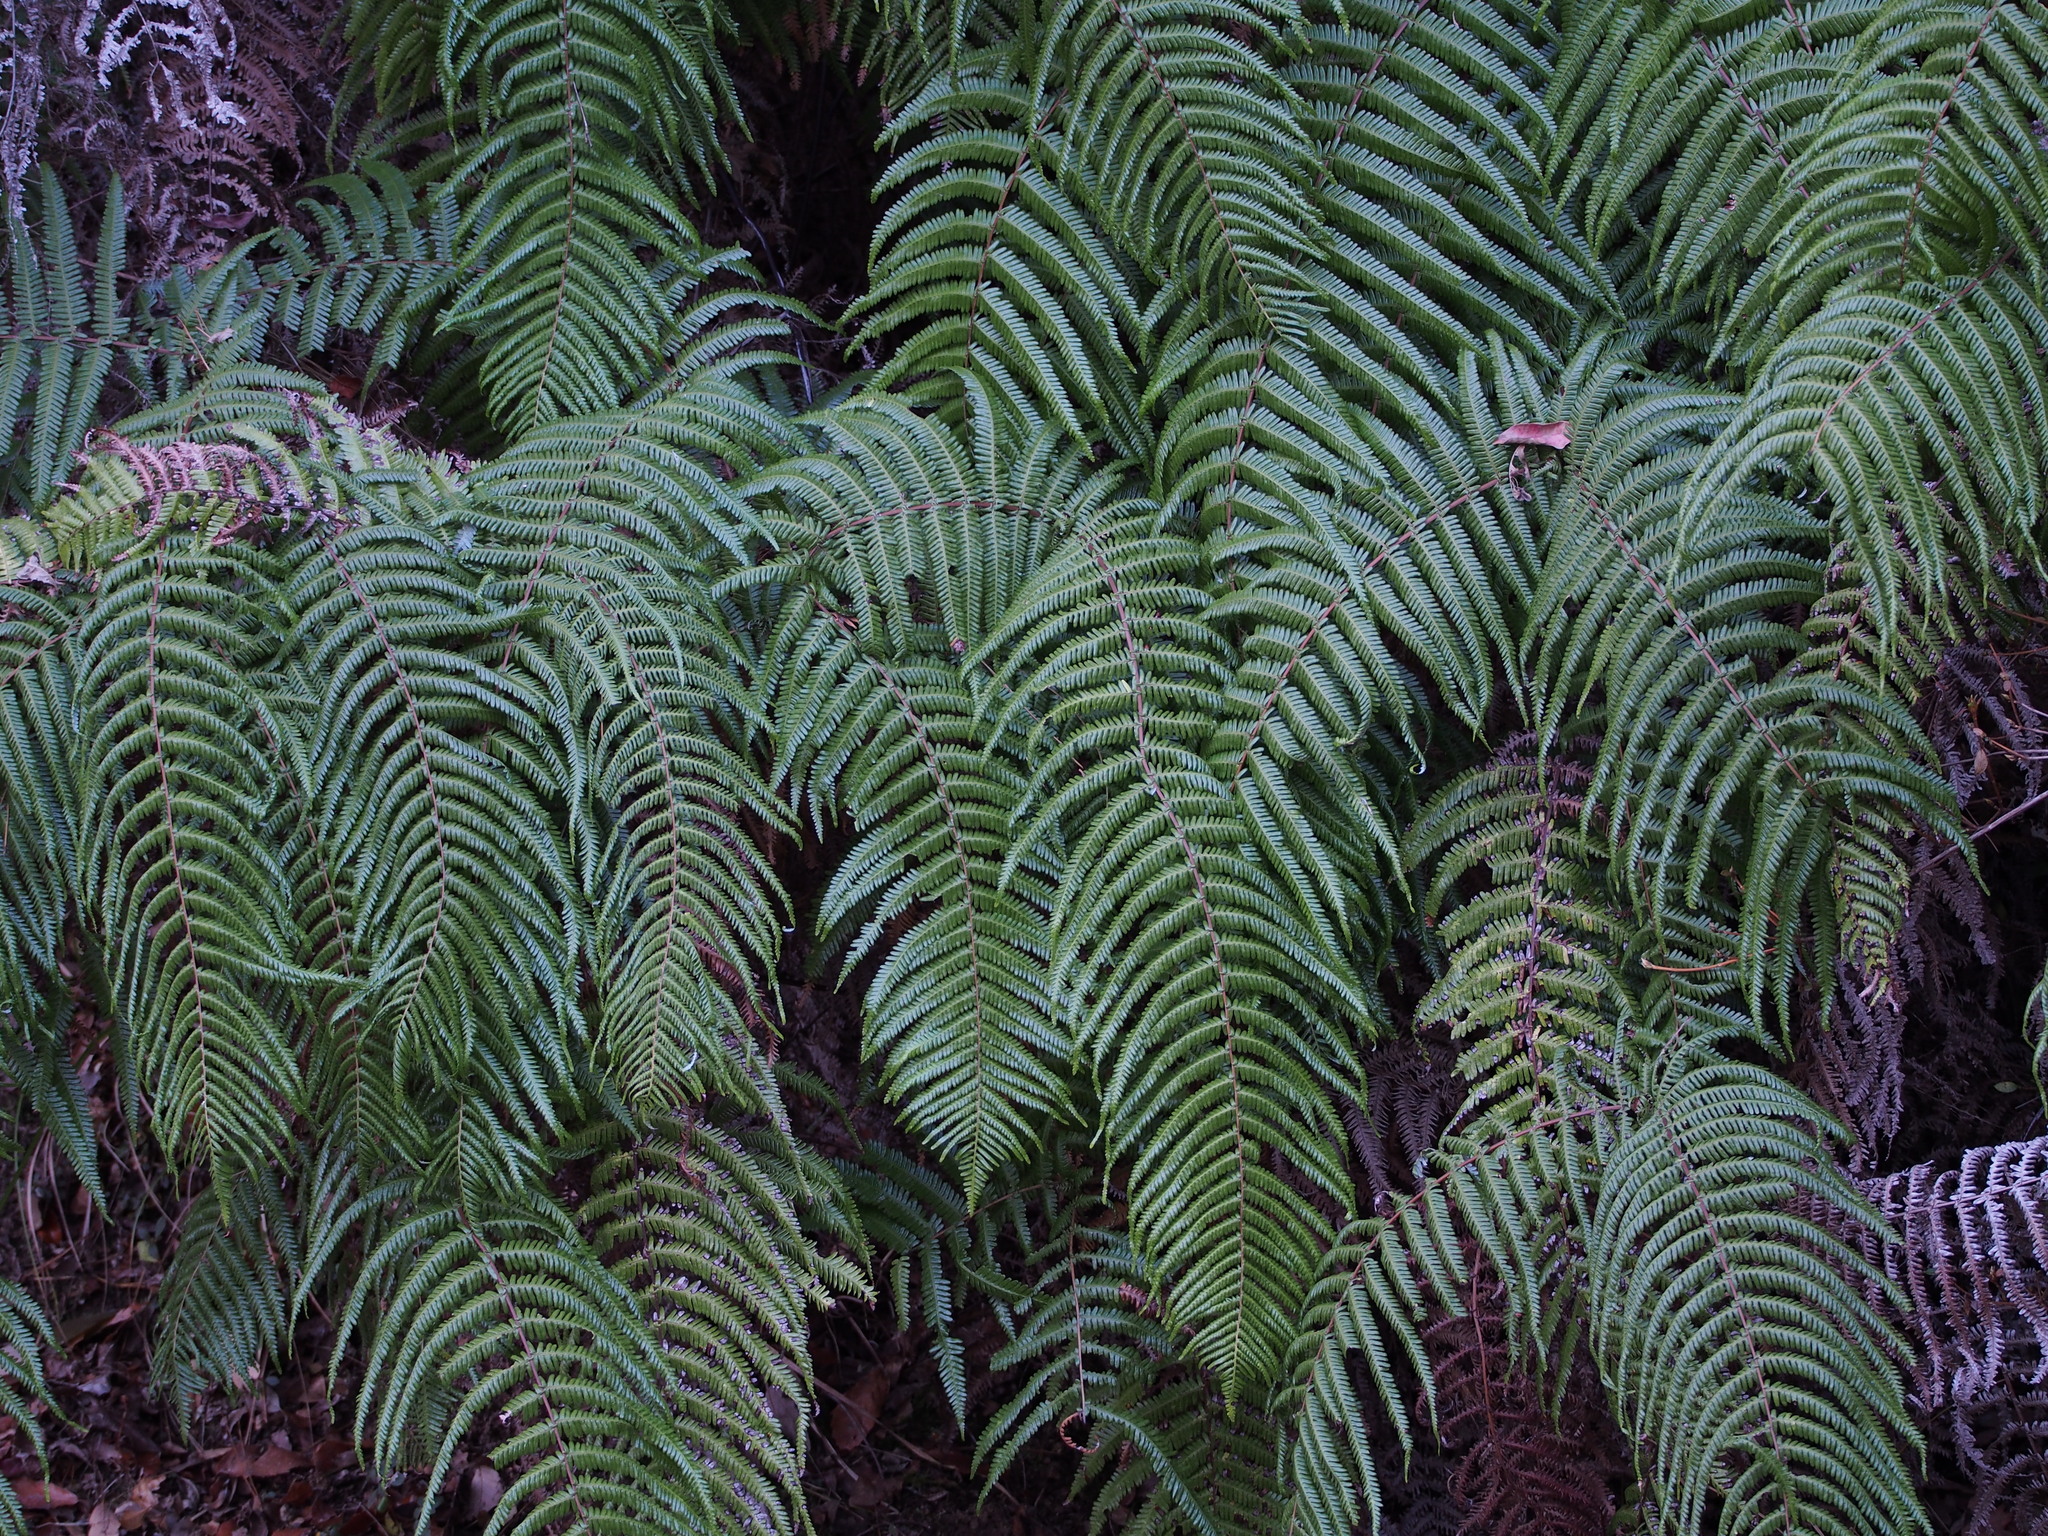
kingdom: Plantae
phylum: Tracheophyta
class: Polypodiopsida
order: Gleicheniales
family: Gleicheniaceae
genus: Diplopterygium
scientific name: Diplopterygium glaucum
